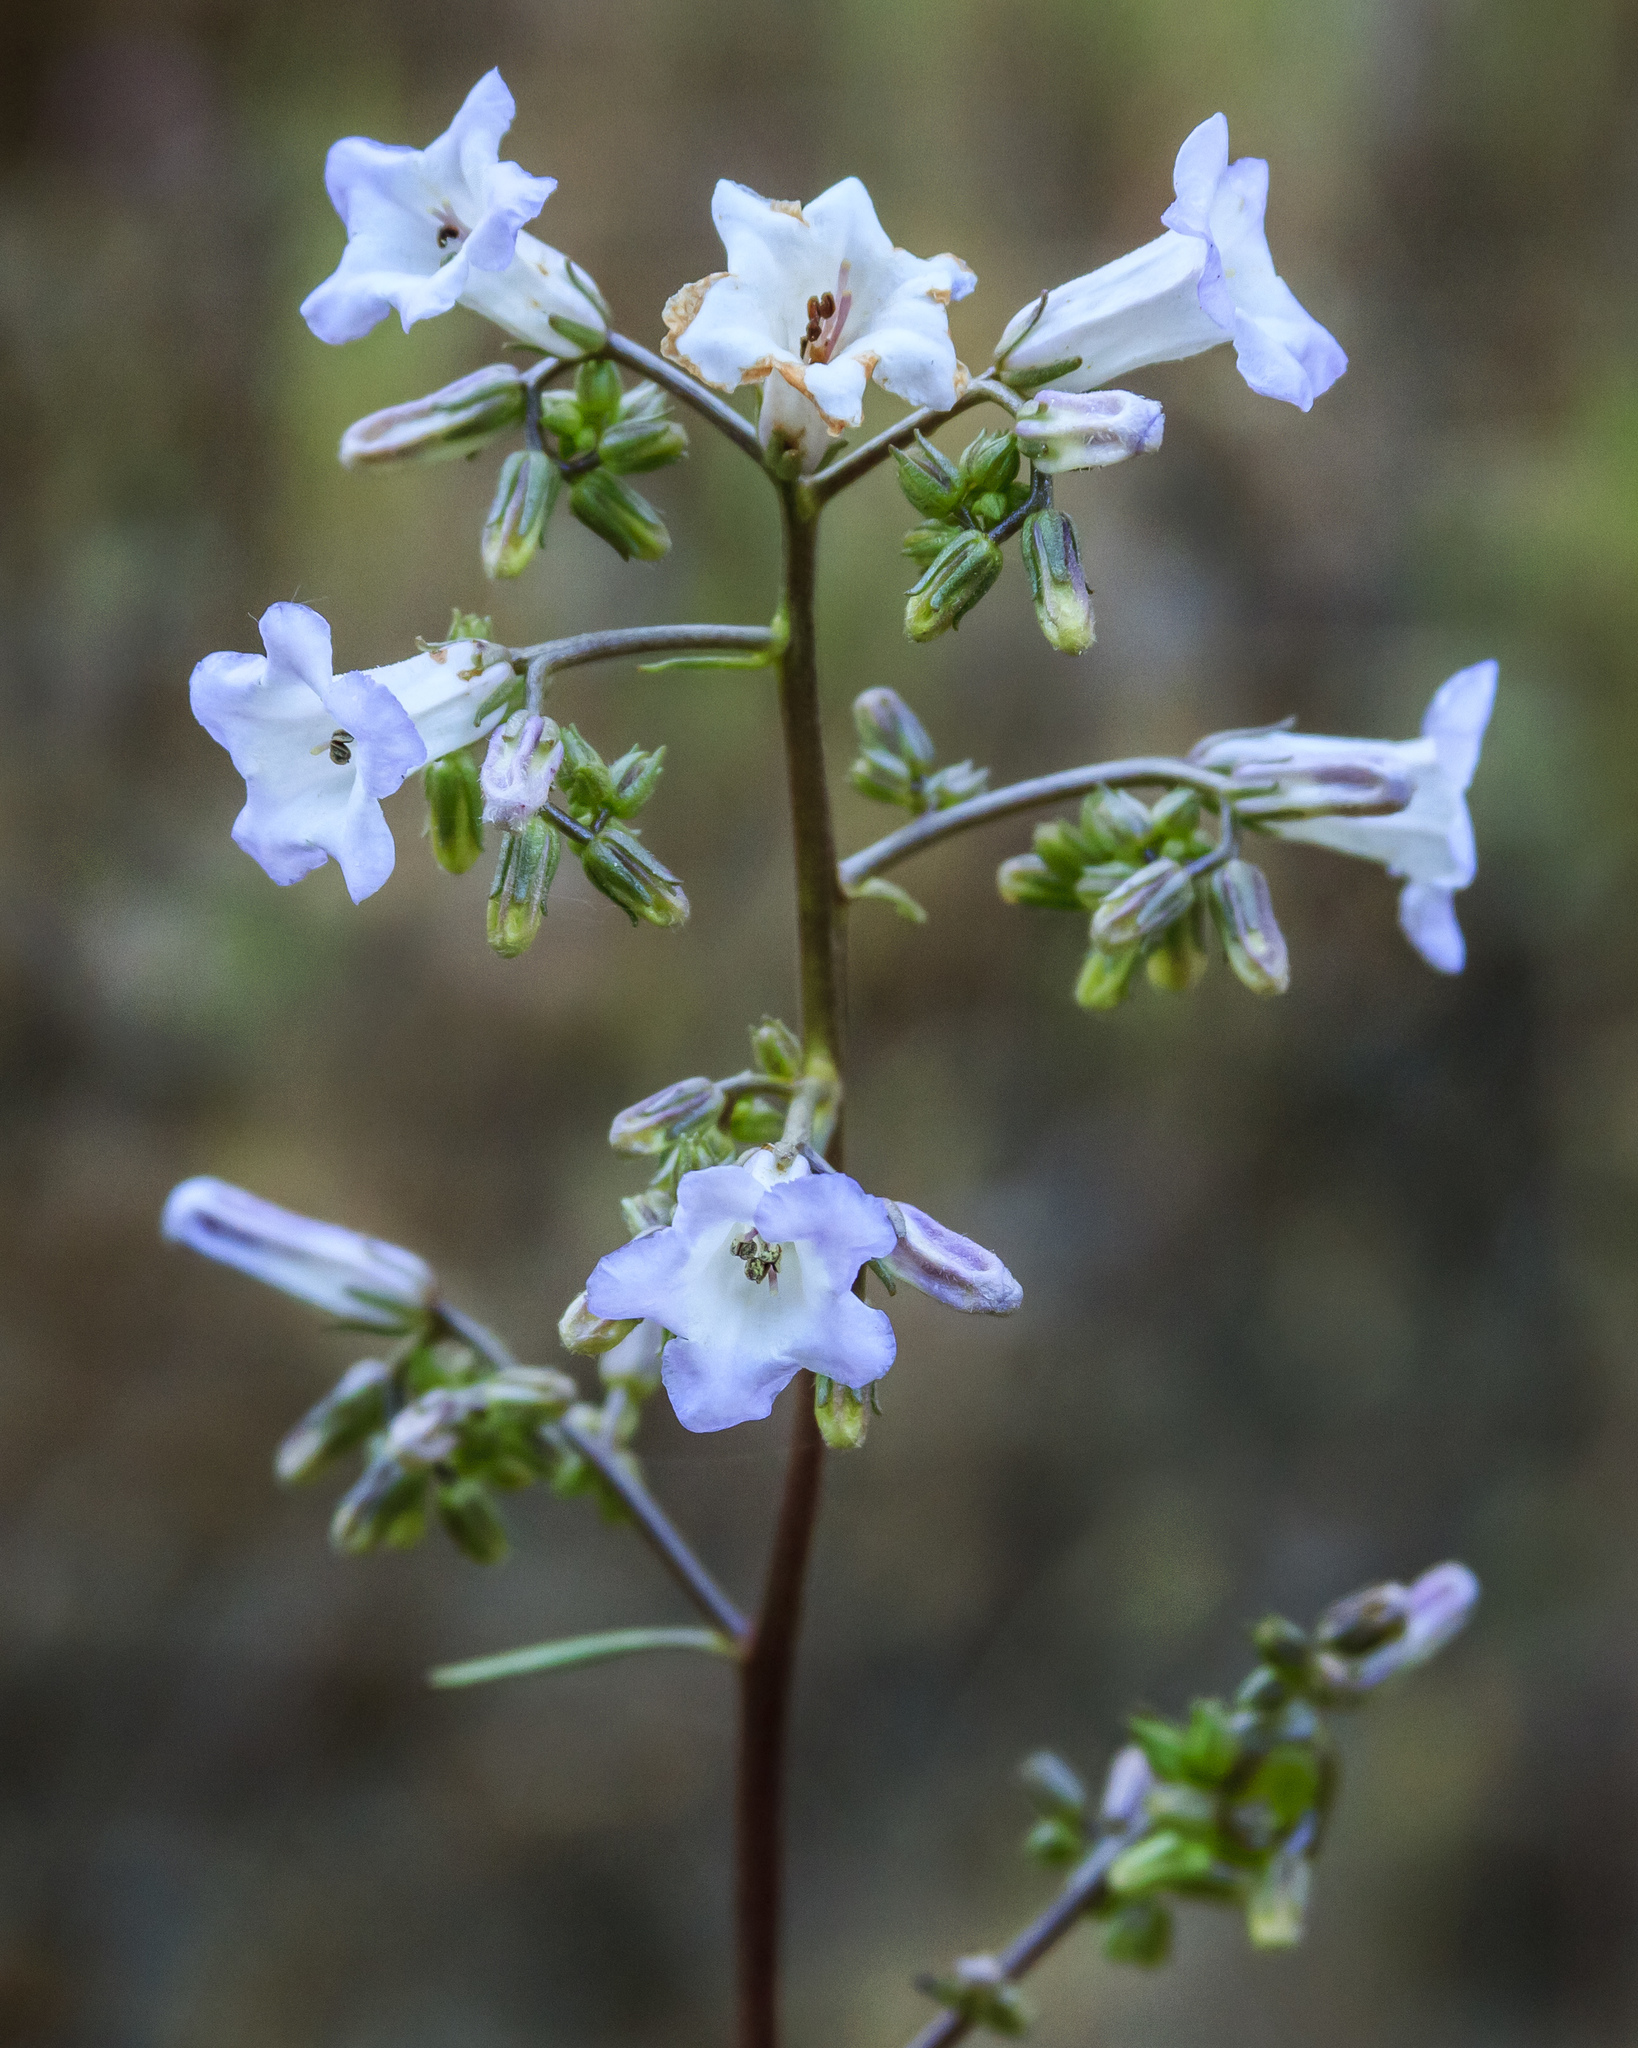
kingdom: Plantae
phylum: Tracheophyta
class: Magnoliopsida
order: Boraginales
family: Namaceae
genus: Eriodictyon
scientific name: Eriodictyon californicum
